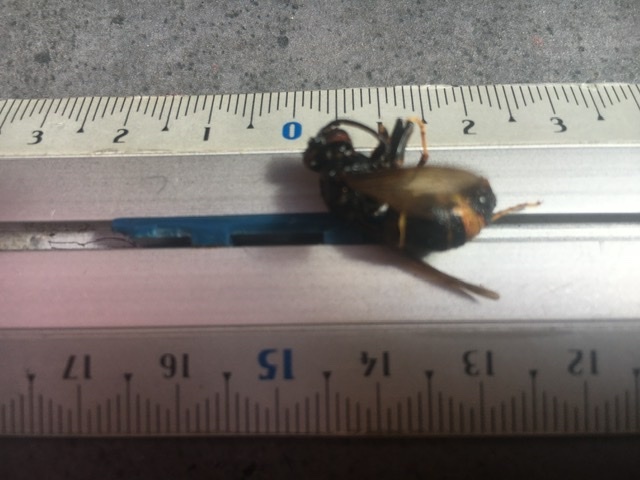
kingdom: Animalia
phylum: Arthropoda
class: Insecta
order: Hymenoptera
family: Vespidae
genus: Vespa
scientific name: Vespa velutina
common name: Asian hornet
